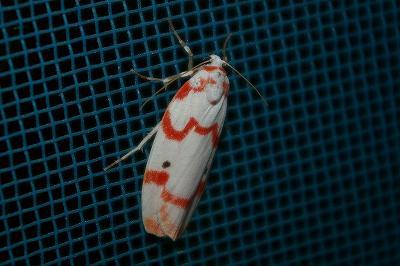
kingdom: Animalia
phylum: Arthropoda
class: Insecta
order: Lepidoptera
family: Erebidae
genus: Cyana
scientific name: Cyana hamata
